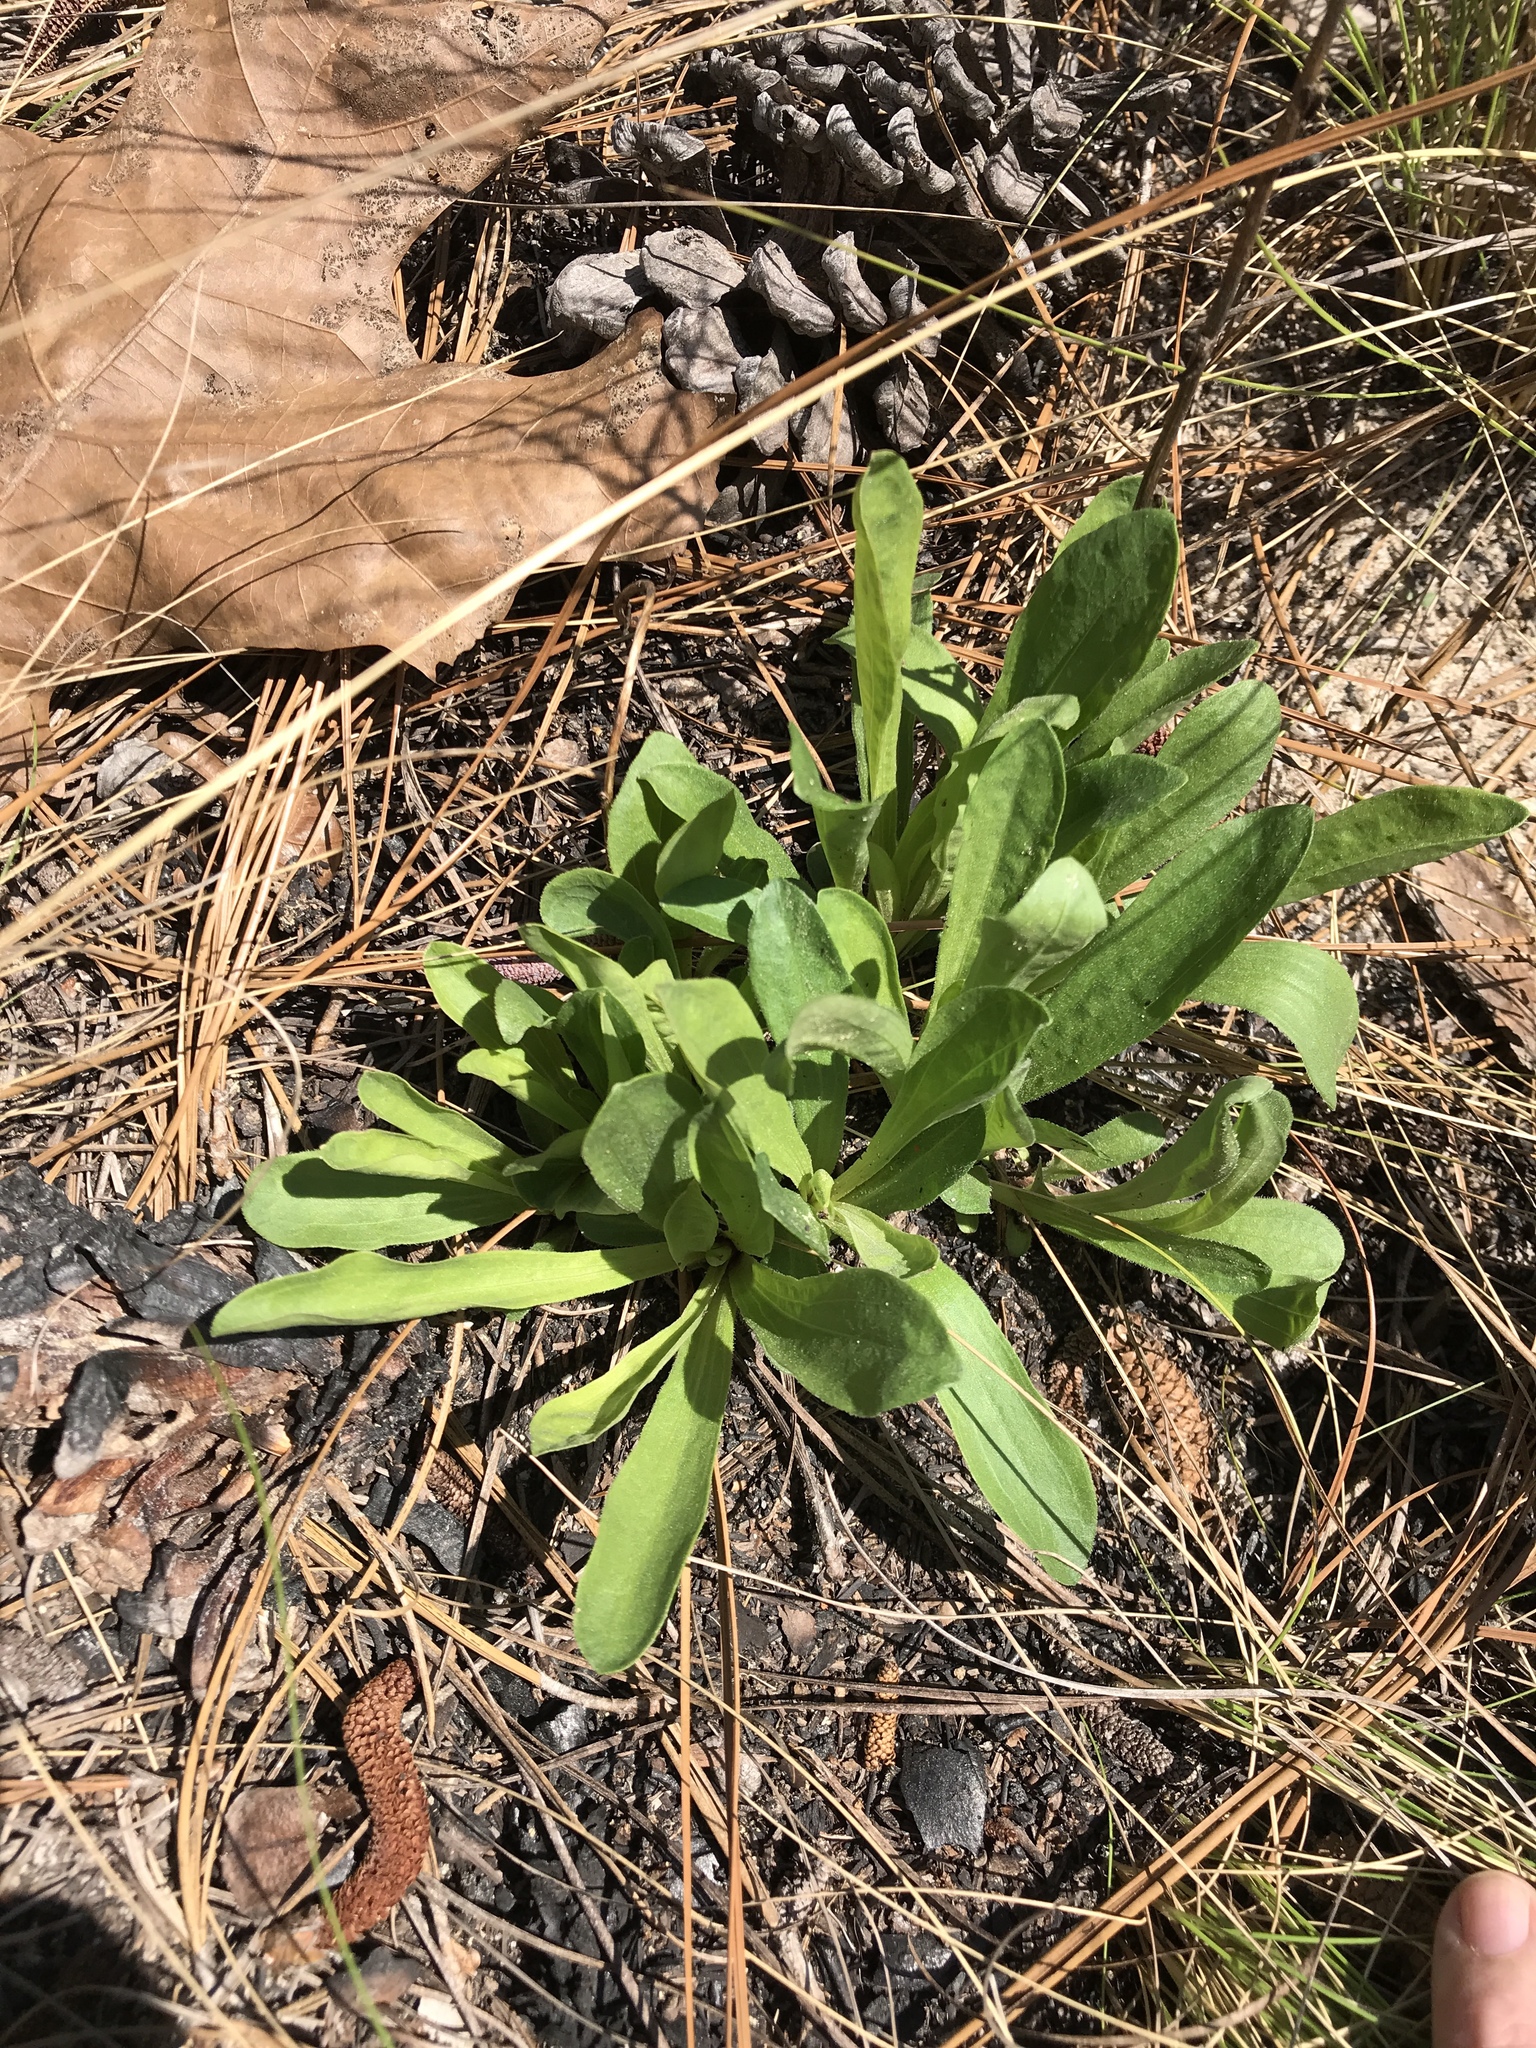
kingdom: Plantae
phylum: Tracheophyta
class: Magnoliopsida
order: Asterales
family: Asteraceae
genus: Carphephorus
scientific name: Carphephorus bellidifolius
